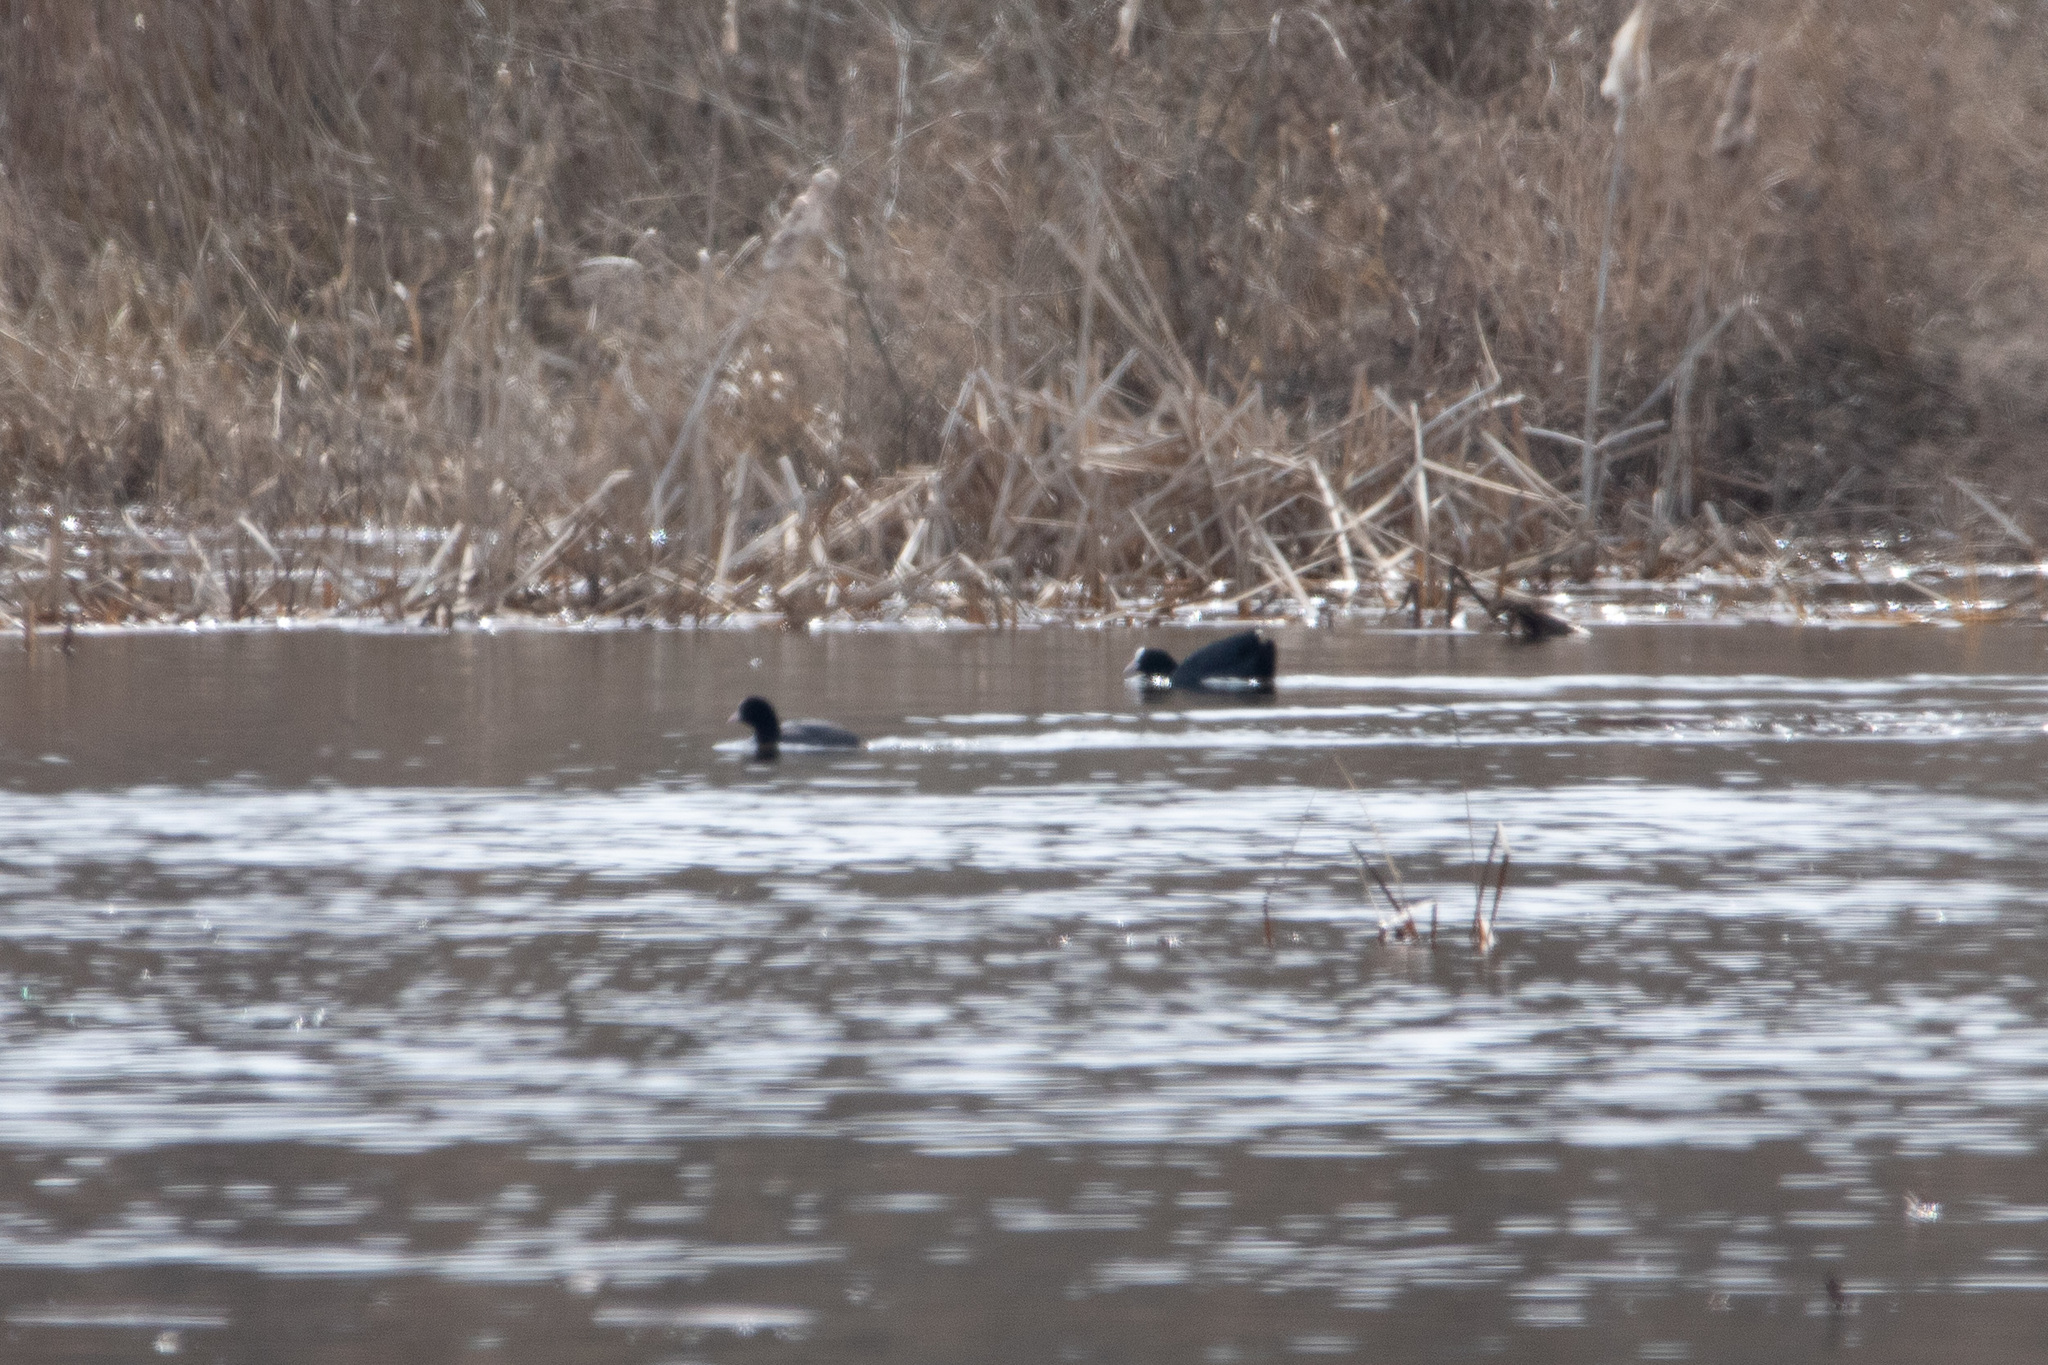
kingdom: Animalia
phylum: Chordata
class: Aves
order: Gruiformes
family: Rallidae
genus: Fulica
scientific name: Fulica atra
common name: Eurasian coot
